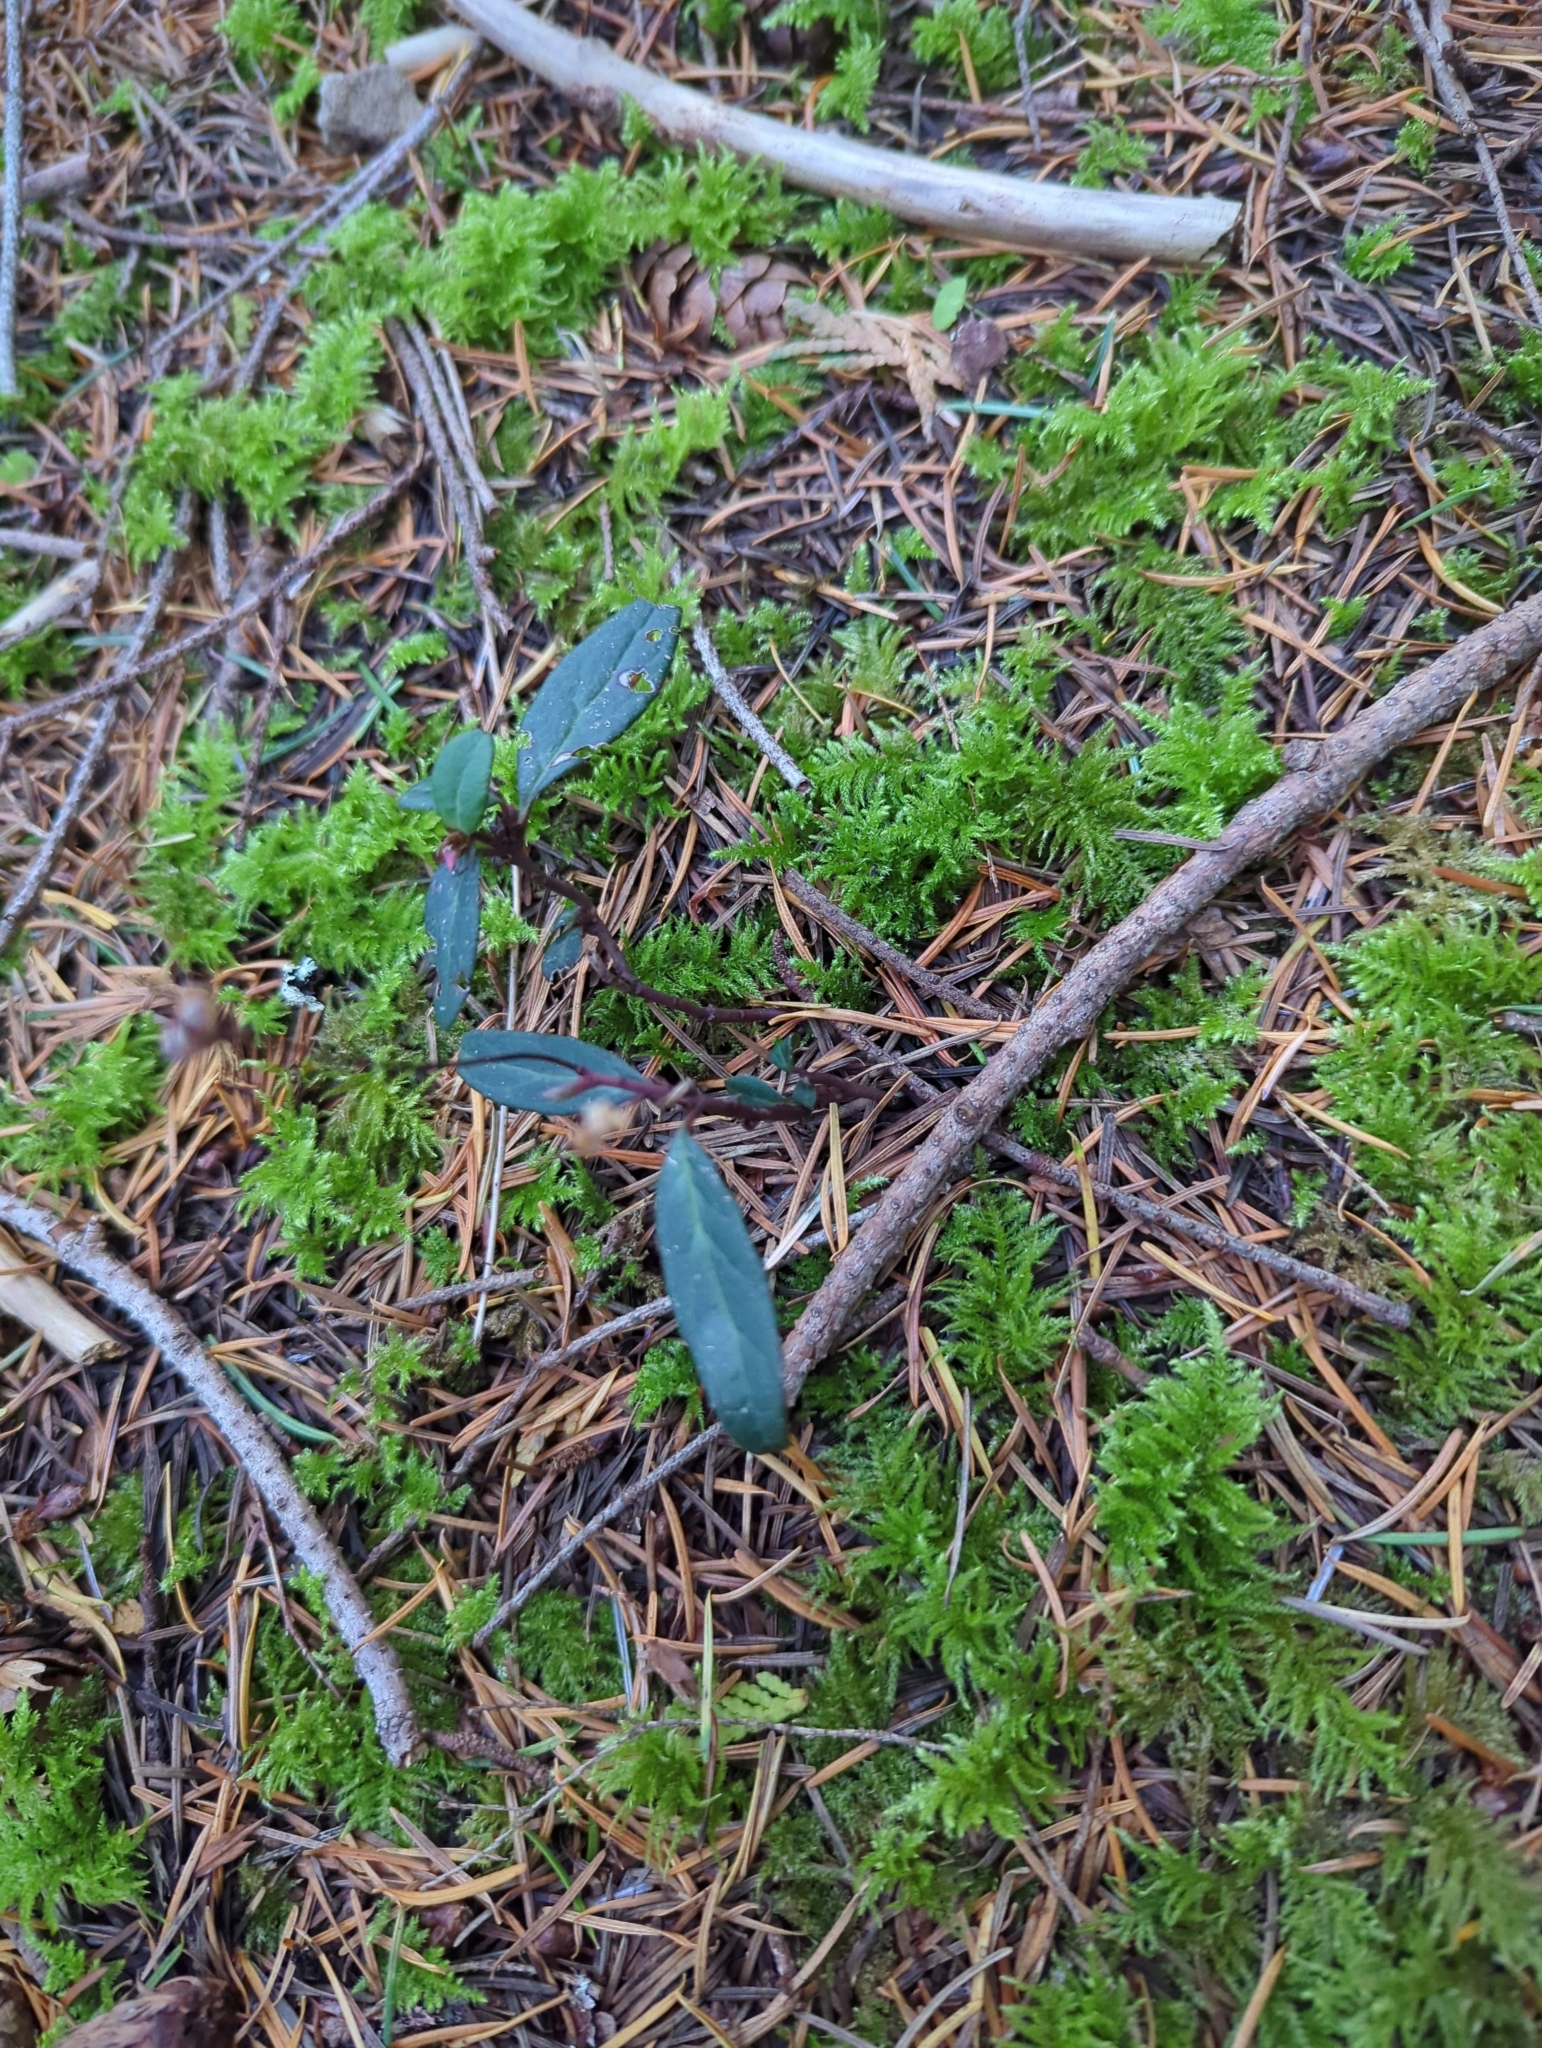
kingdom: Plantae
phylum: Tracheophyta
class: Magnoliopsida
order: Ericales
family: Ericaceae
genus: Chimaphila
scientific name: Chimaphila menziesii
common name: Menzies' pipsissewa
